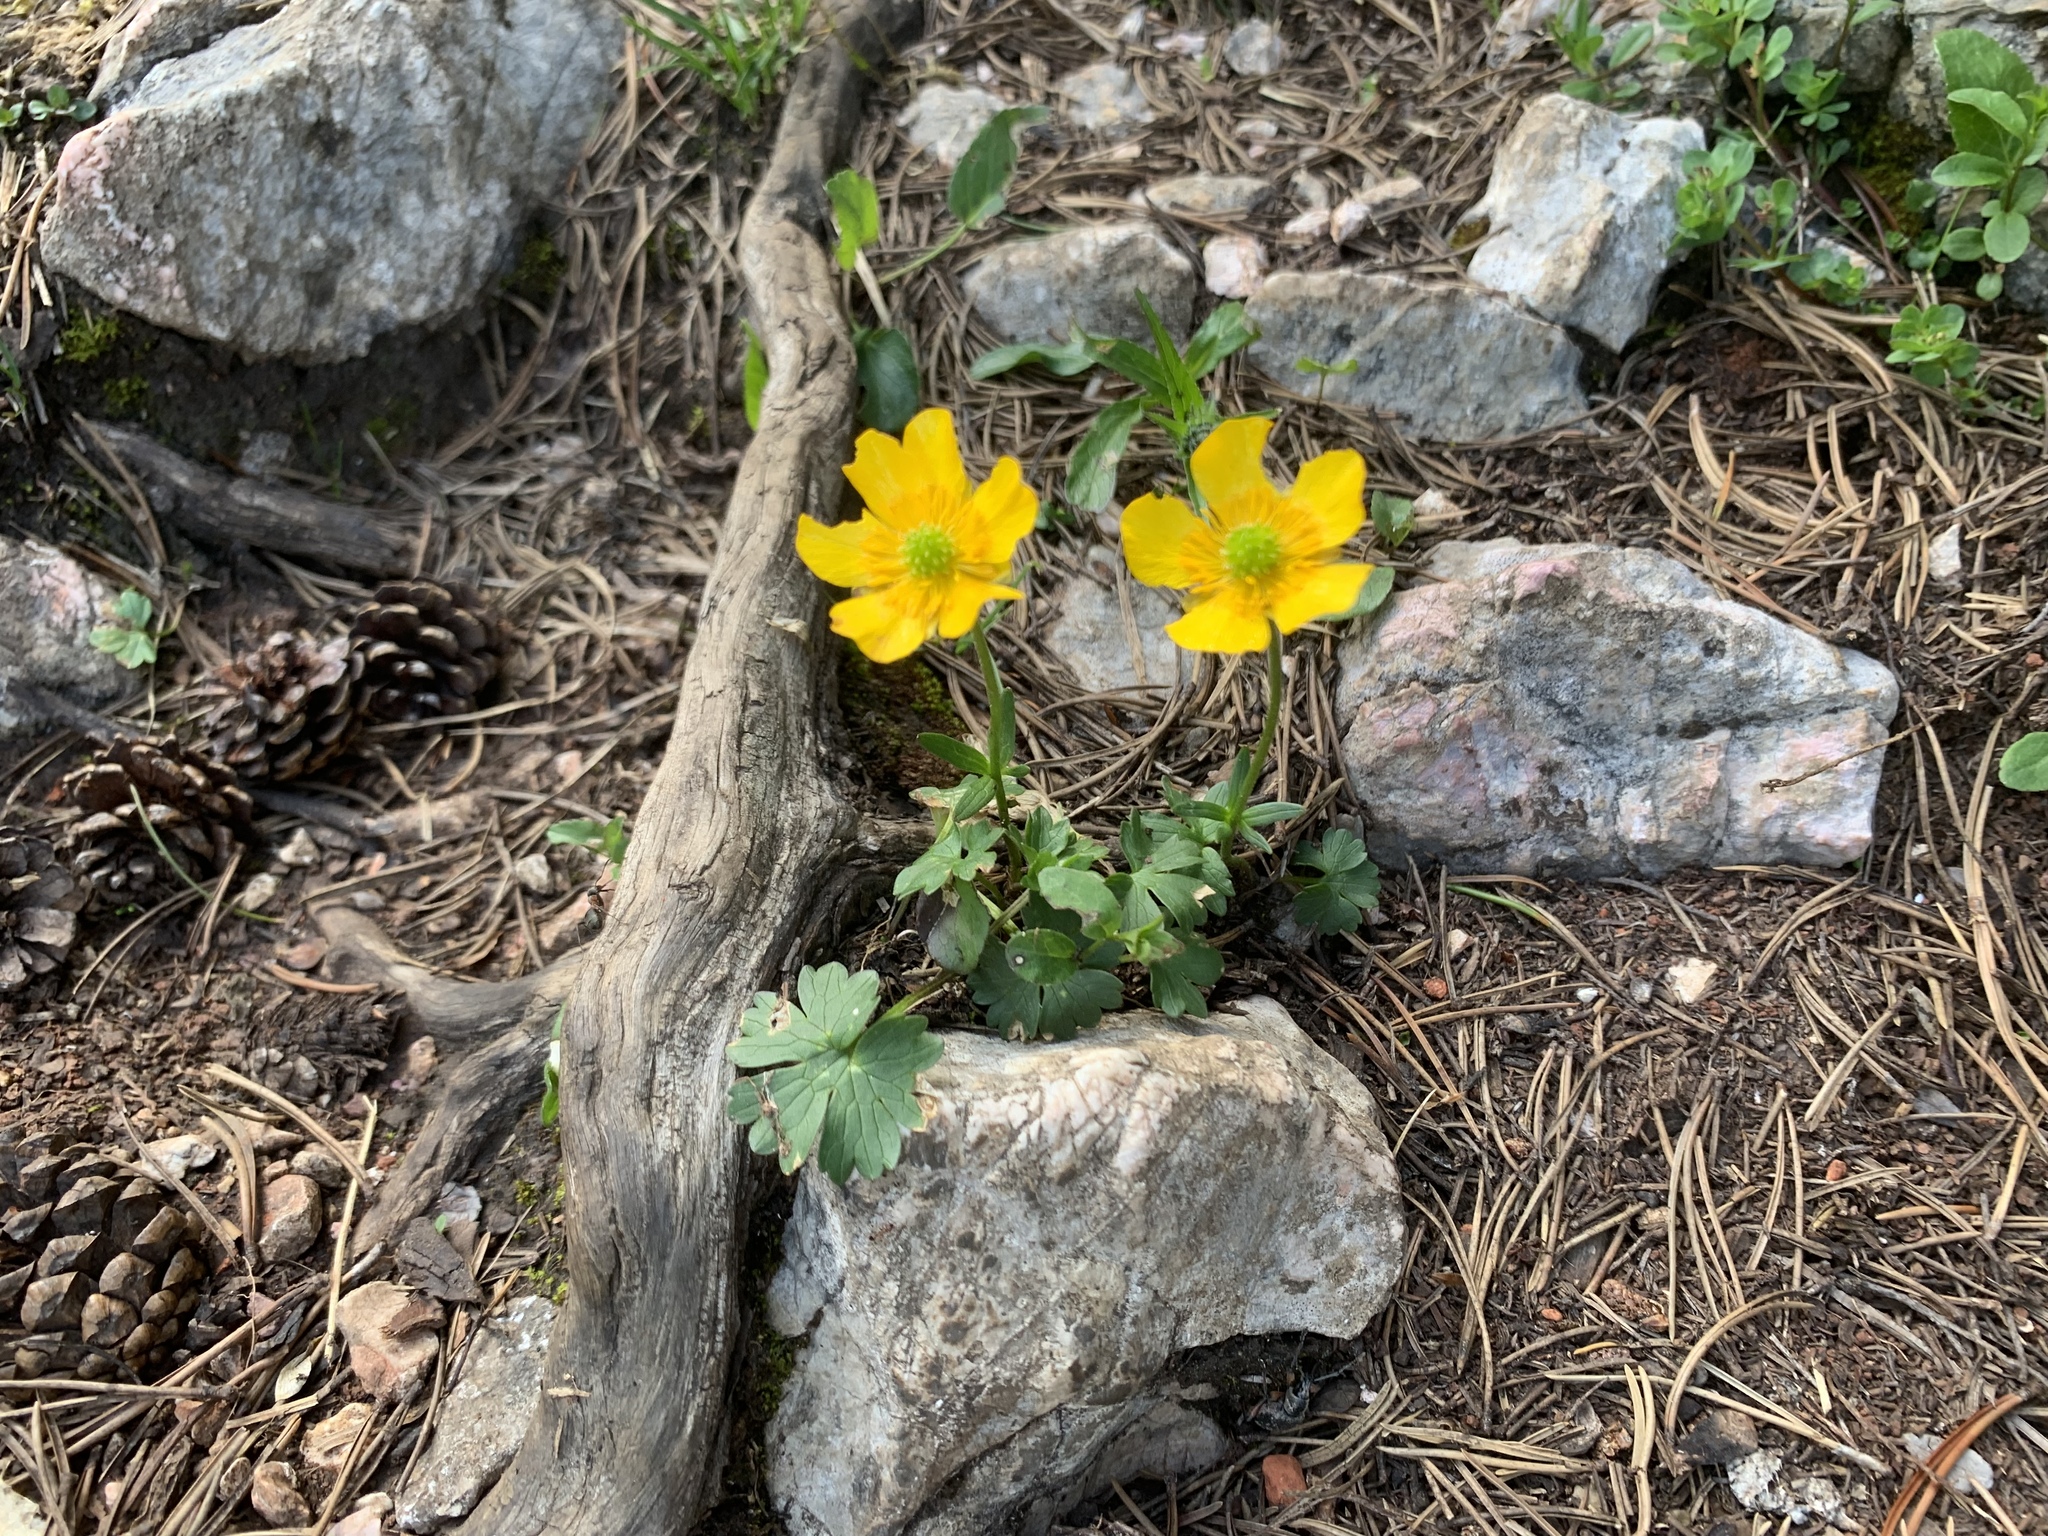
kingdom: Plantae
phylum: Tracheophyta
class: Magnoliopsida
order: Ranunculales
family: Ranunculaceae
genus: Ranunculus
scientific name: Ranunculus montanus
